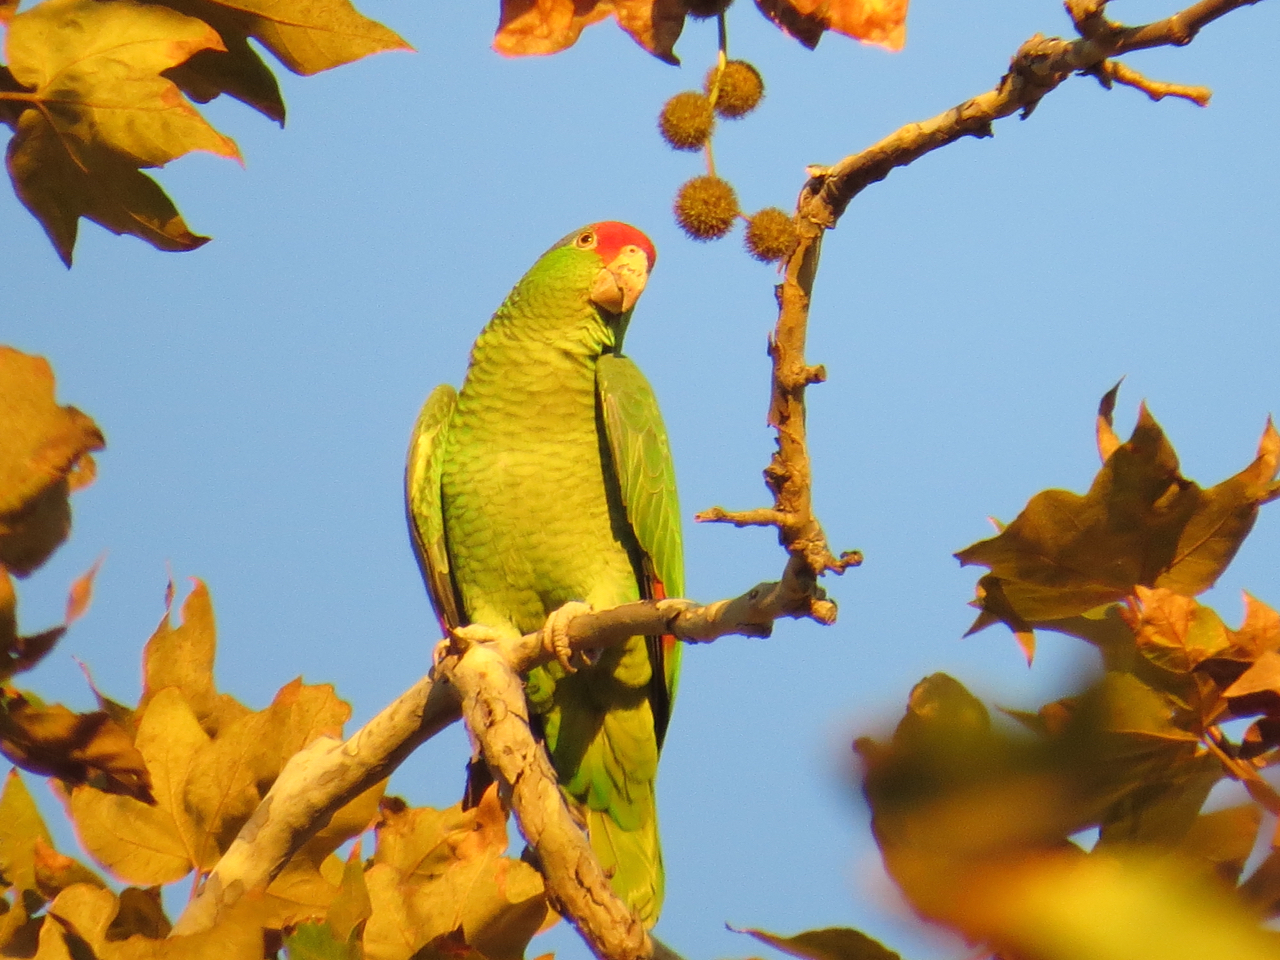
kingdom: Animalia
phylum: Chordata
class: Aves
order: Psittaciformes
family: Psittacidae
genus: Amazona
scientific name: Amazona viridigenalis
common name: Red-crowned amazon
